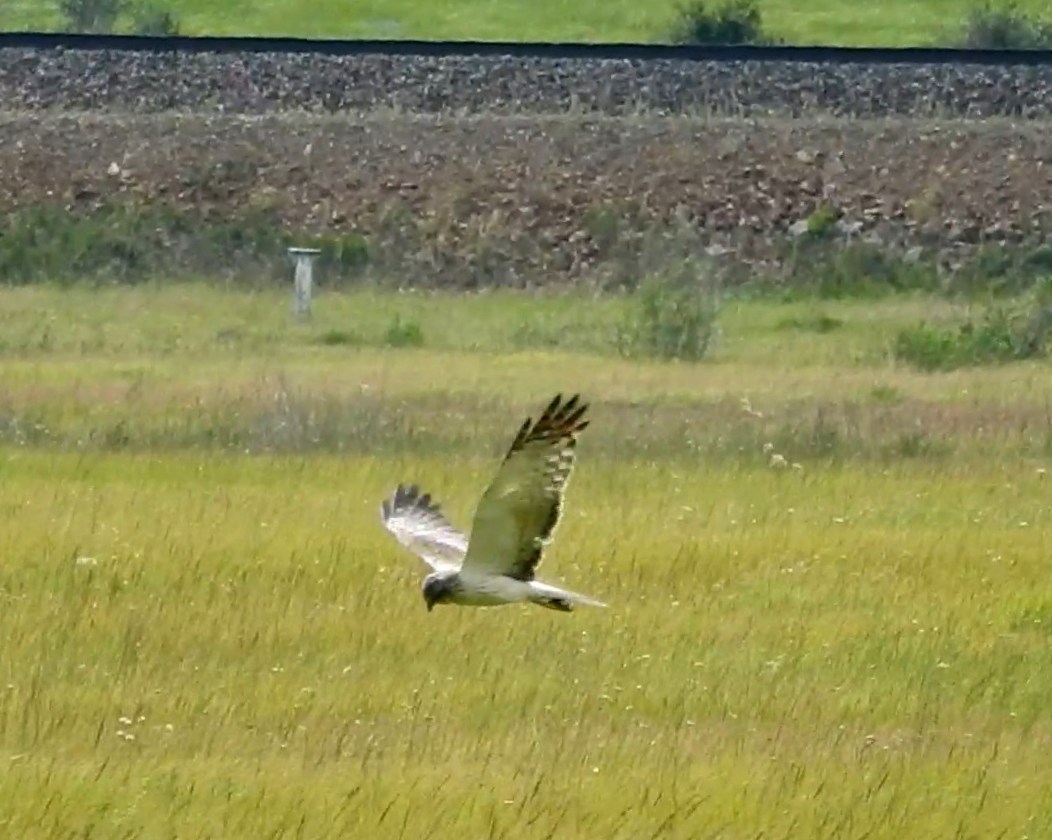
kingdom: Animalia
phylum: Chordata
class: Aves
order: Accipitriformes
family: Accipitridae
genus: Circus
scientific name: Circus spilonotus
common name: Eastern marsh-harrier
